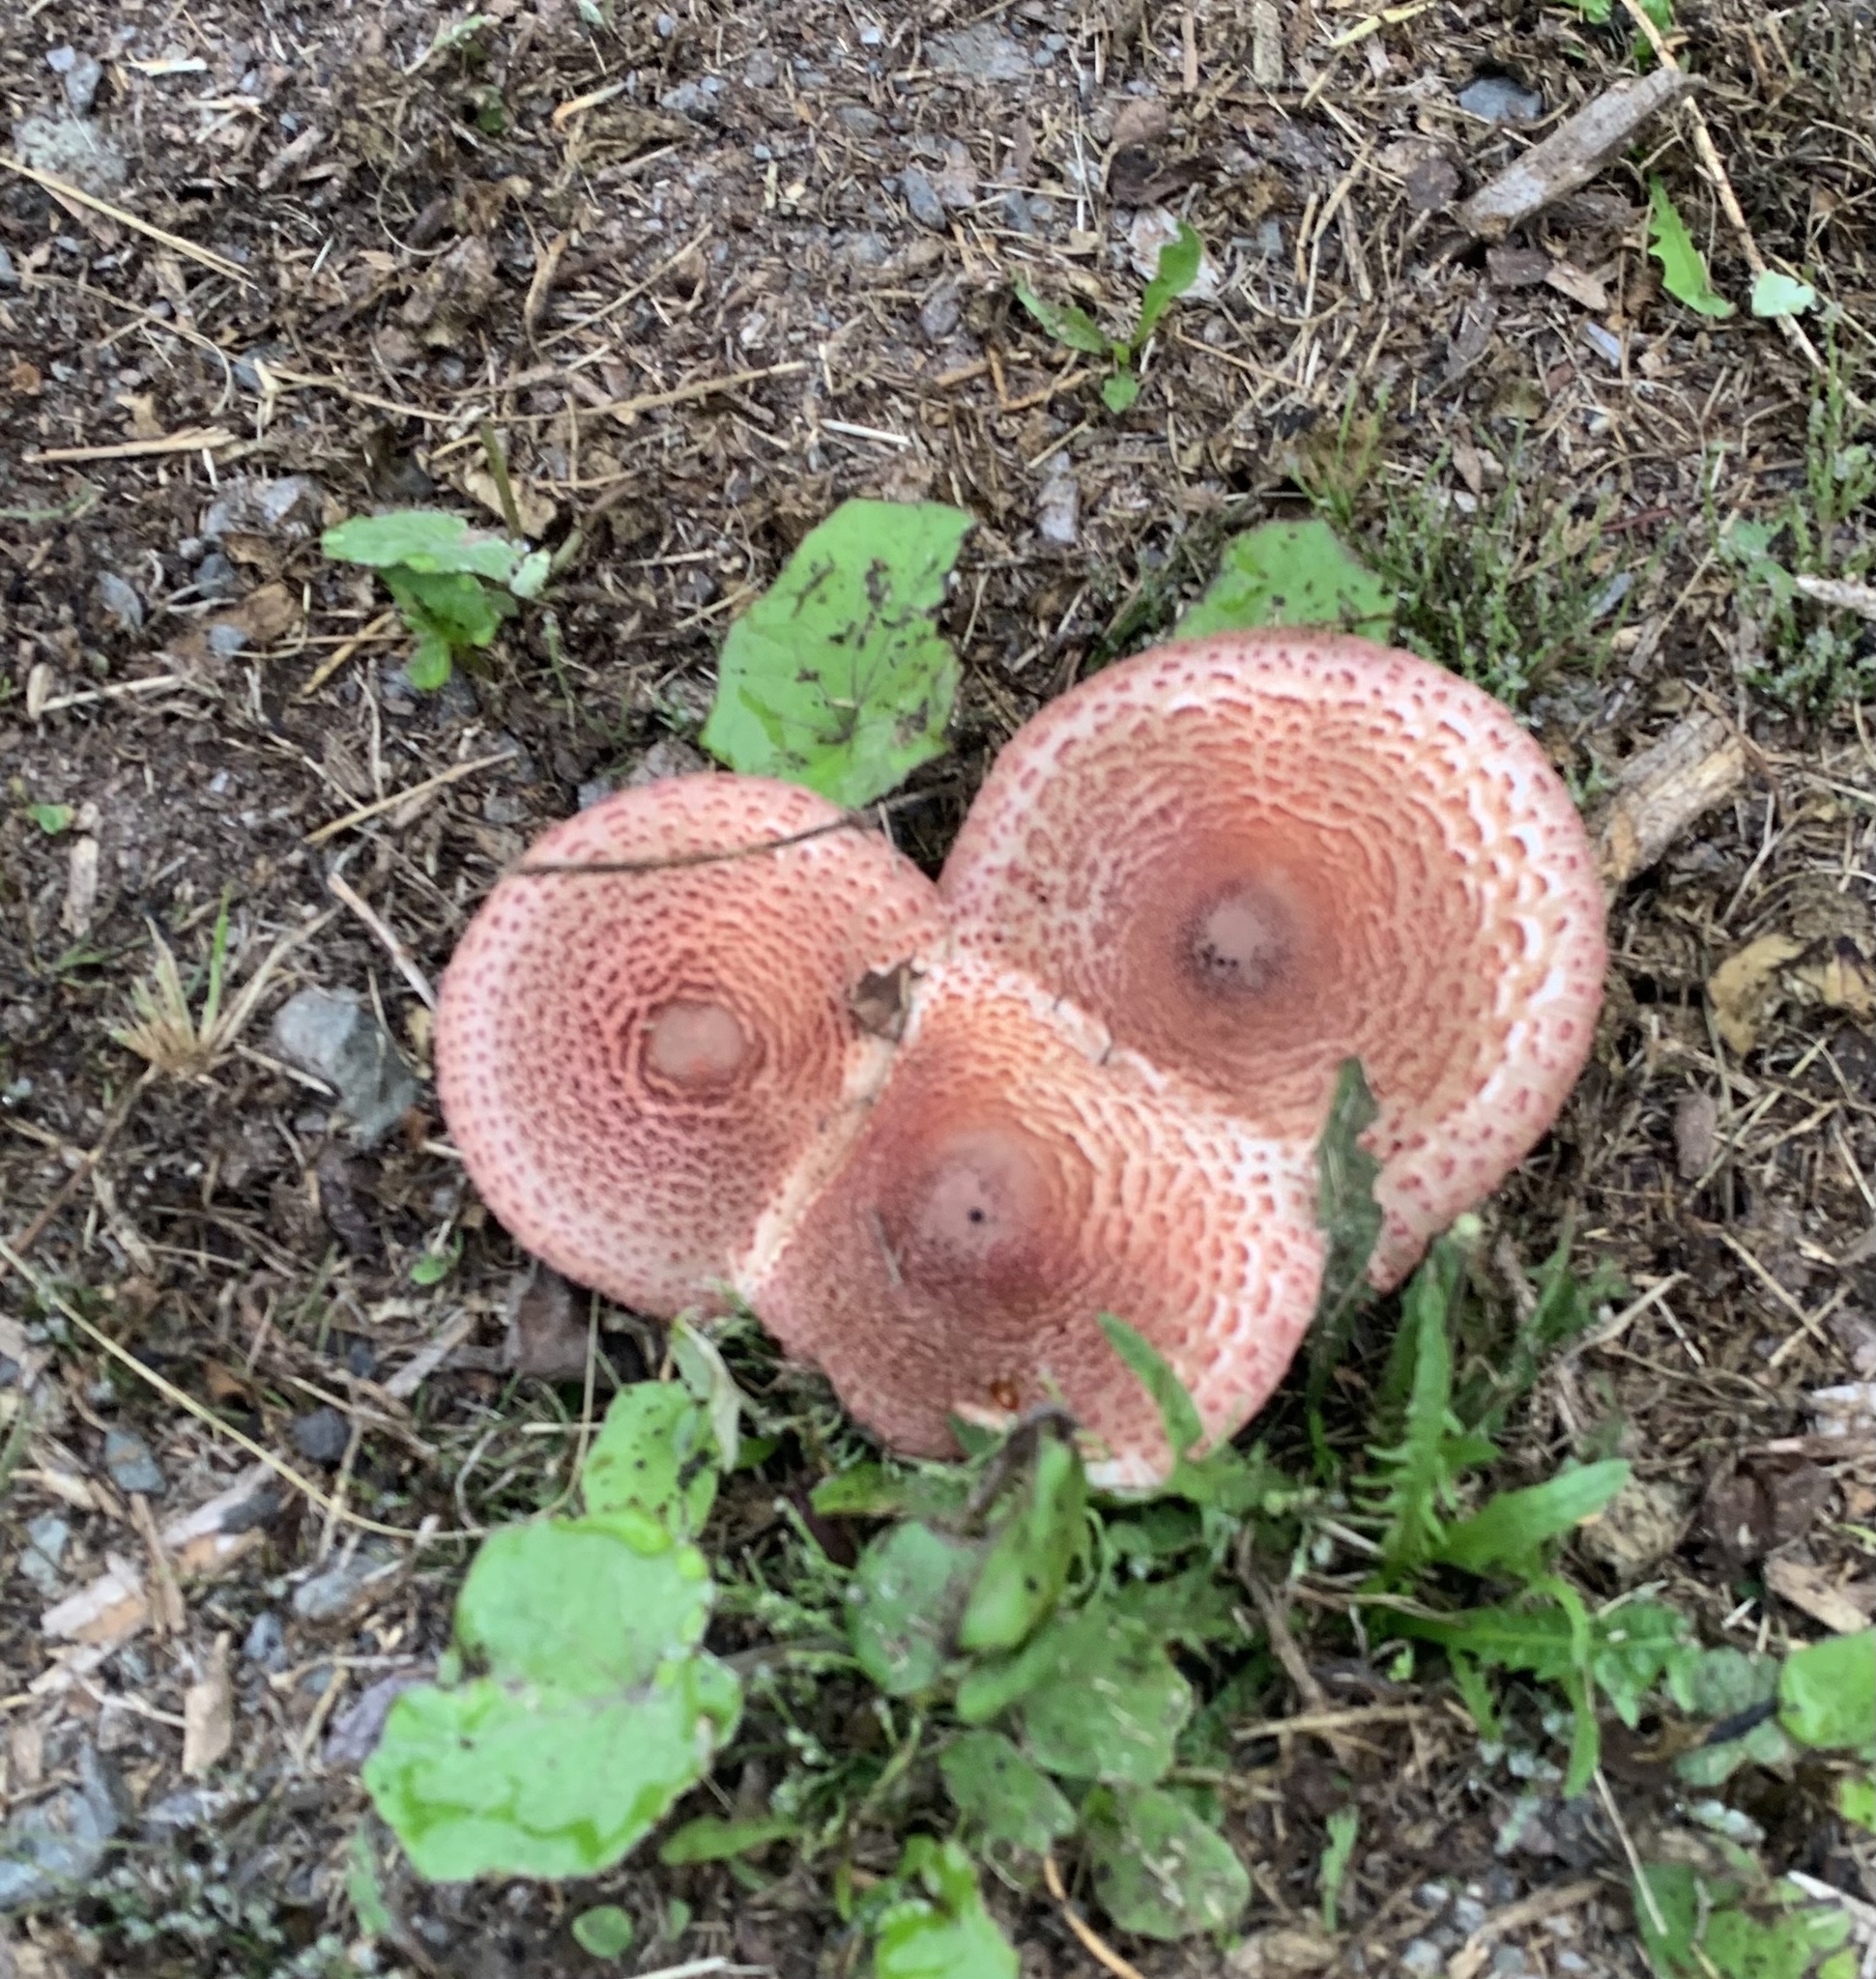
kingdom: Fungi
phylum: Basidiomycota
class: Agaricomycetes
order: Agaricales
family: Agaricaceae
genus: Leucoagaricus
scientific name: Leucoagaricus americanus
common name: Reddening lepiota
